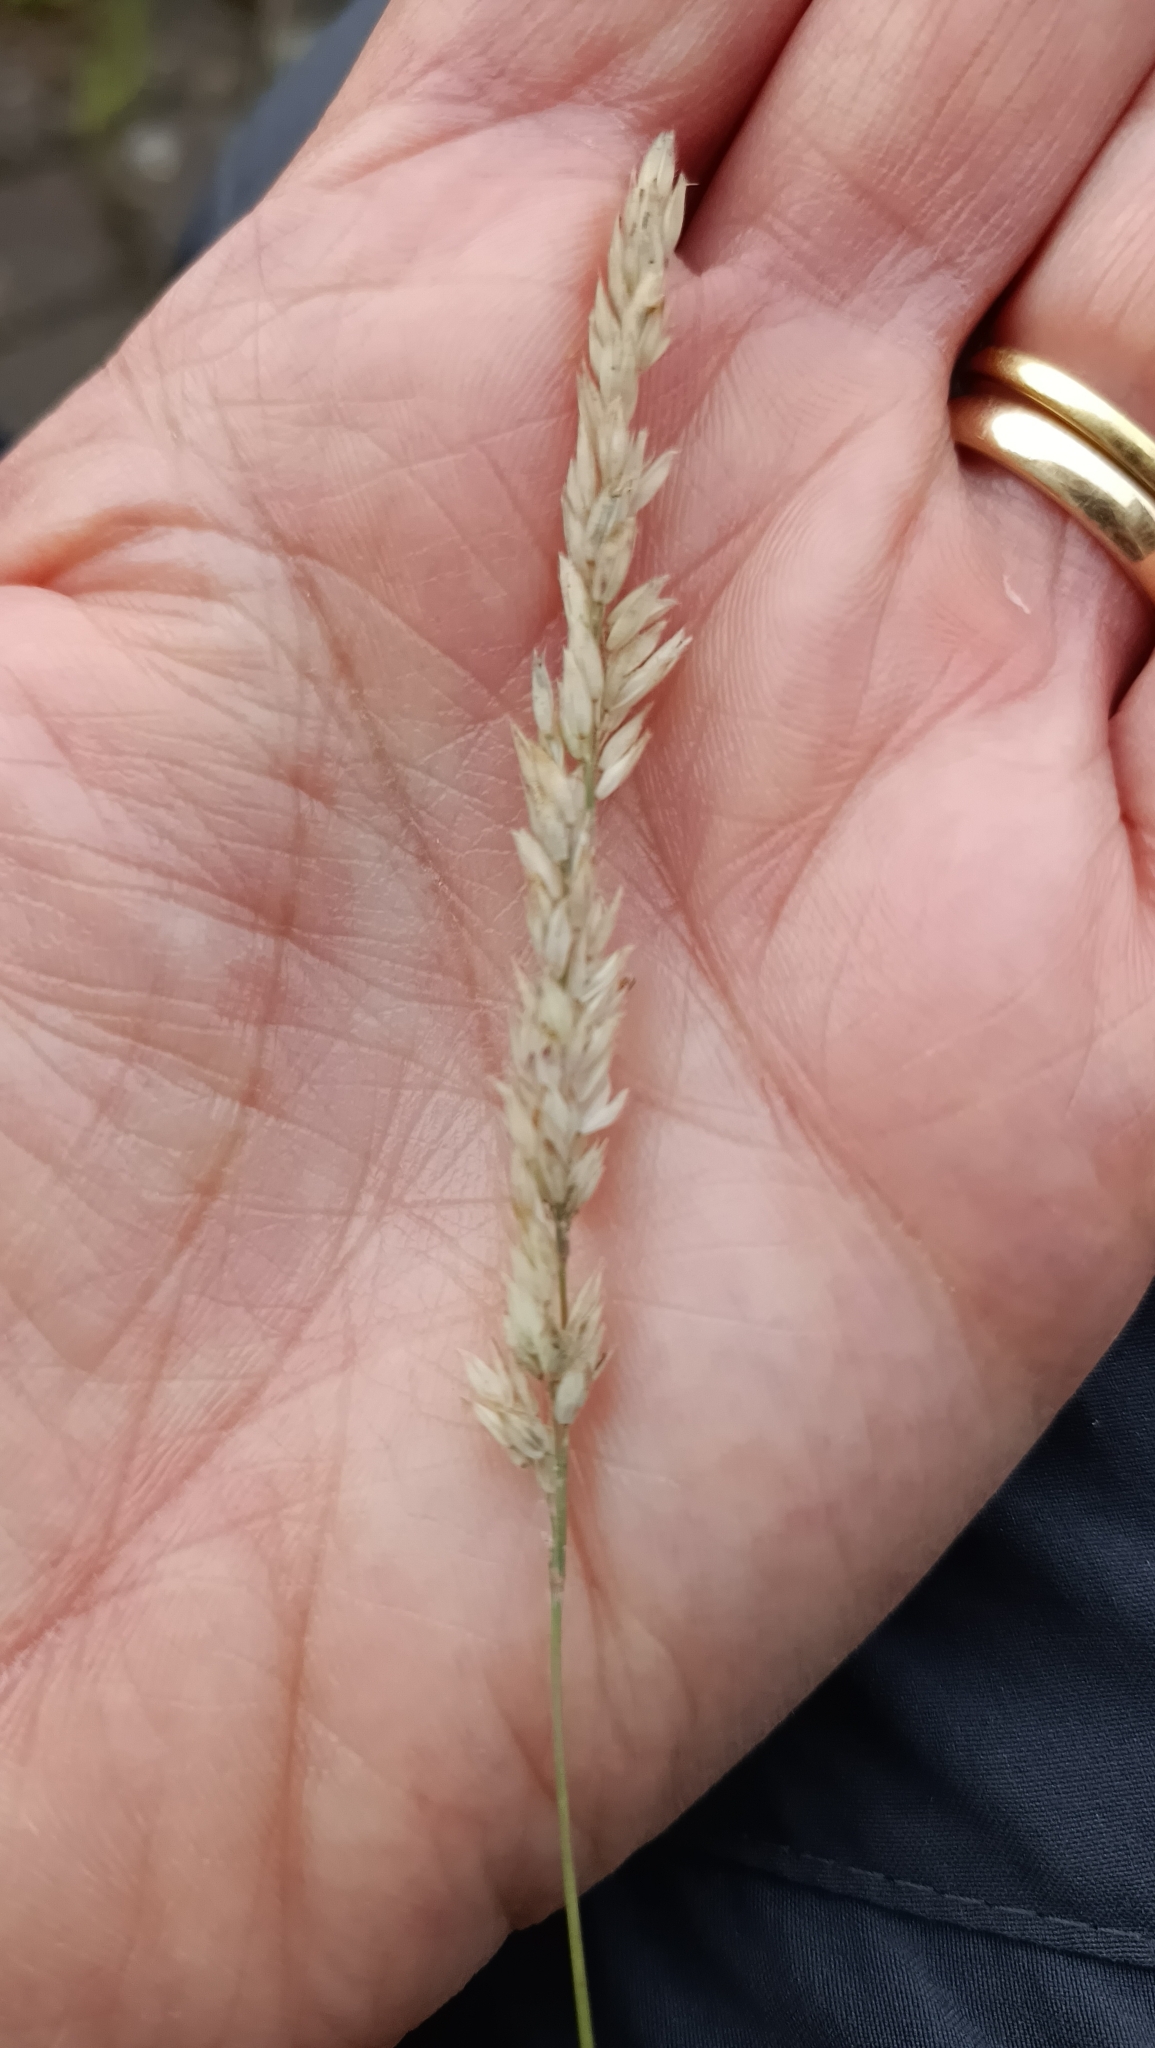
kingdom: Plantae
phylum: Tracheophyta
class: Liliopsida
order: Poales
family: Poaceae
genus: Holcus
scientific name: Holcus lanatus
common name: Yorkshire-fog
